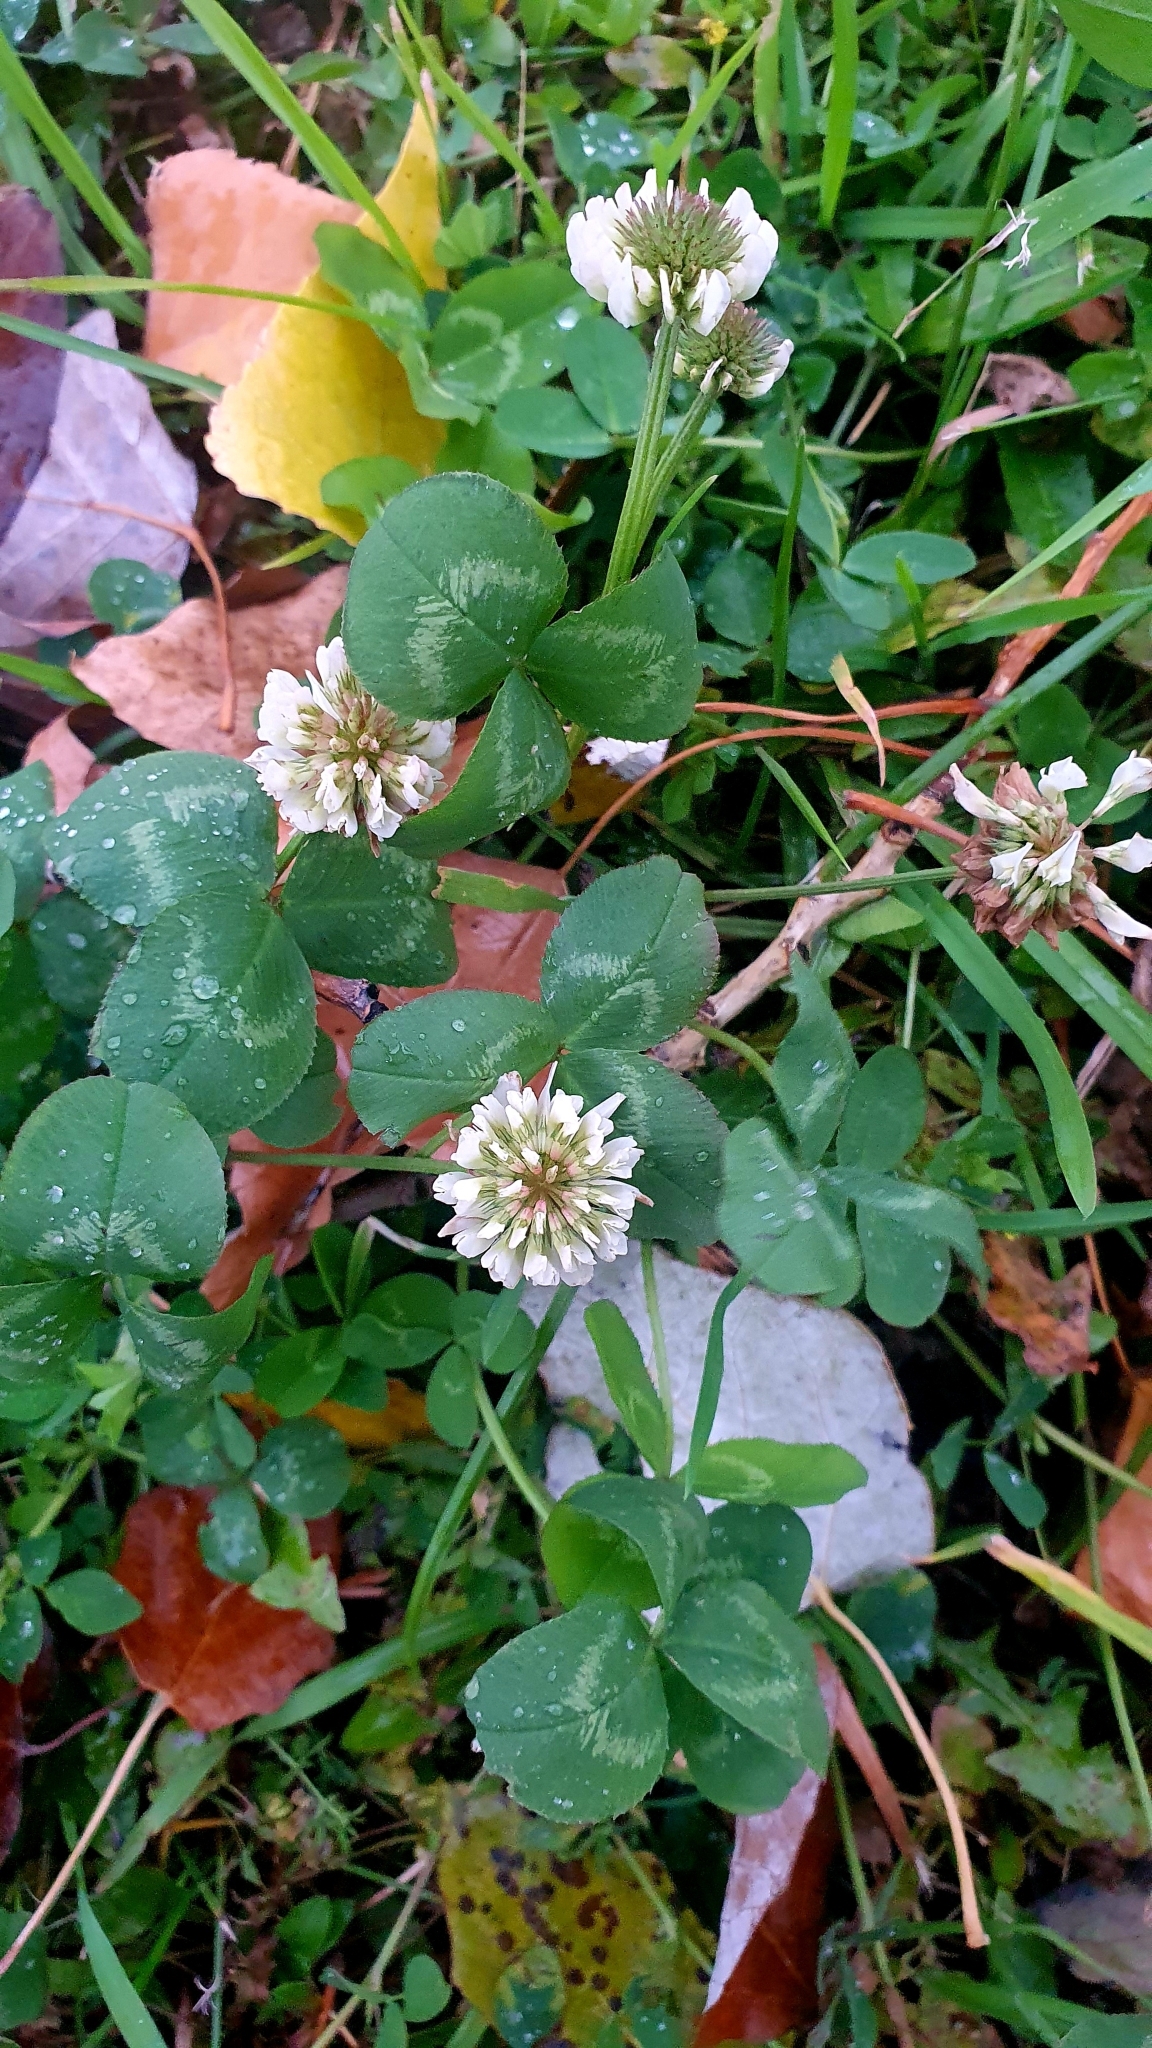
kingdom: Plantae
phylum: Tracheophyta
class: Magnoliopsida
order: Fabales
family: Fabaceae
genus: Trifolium
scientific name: Trifolium repens
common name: White clover
